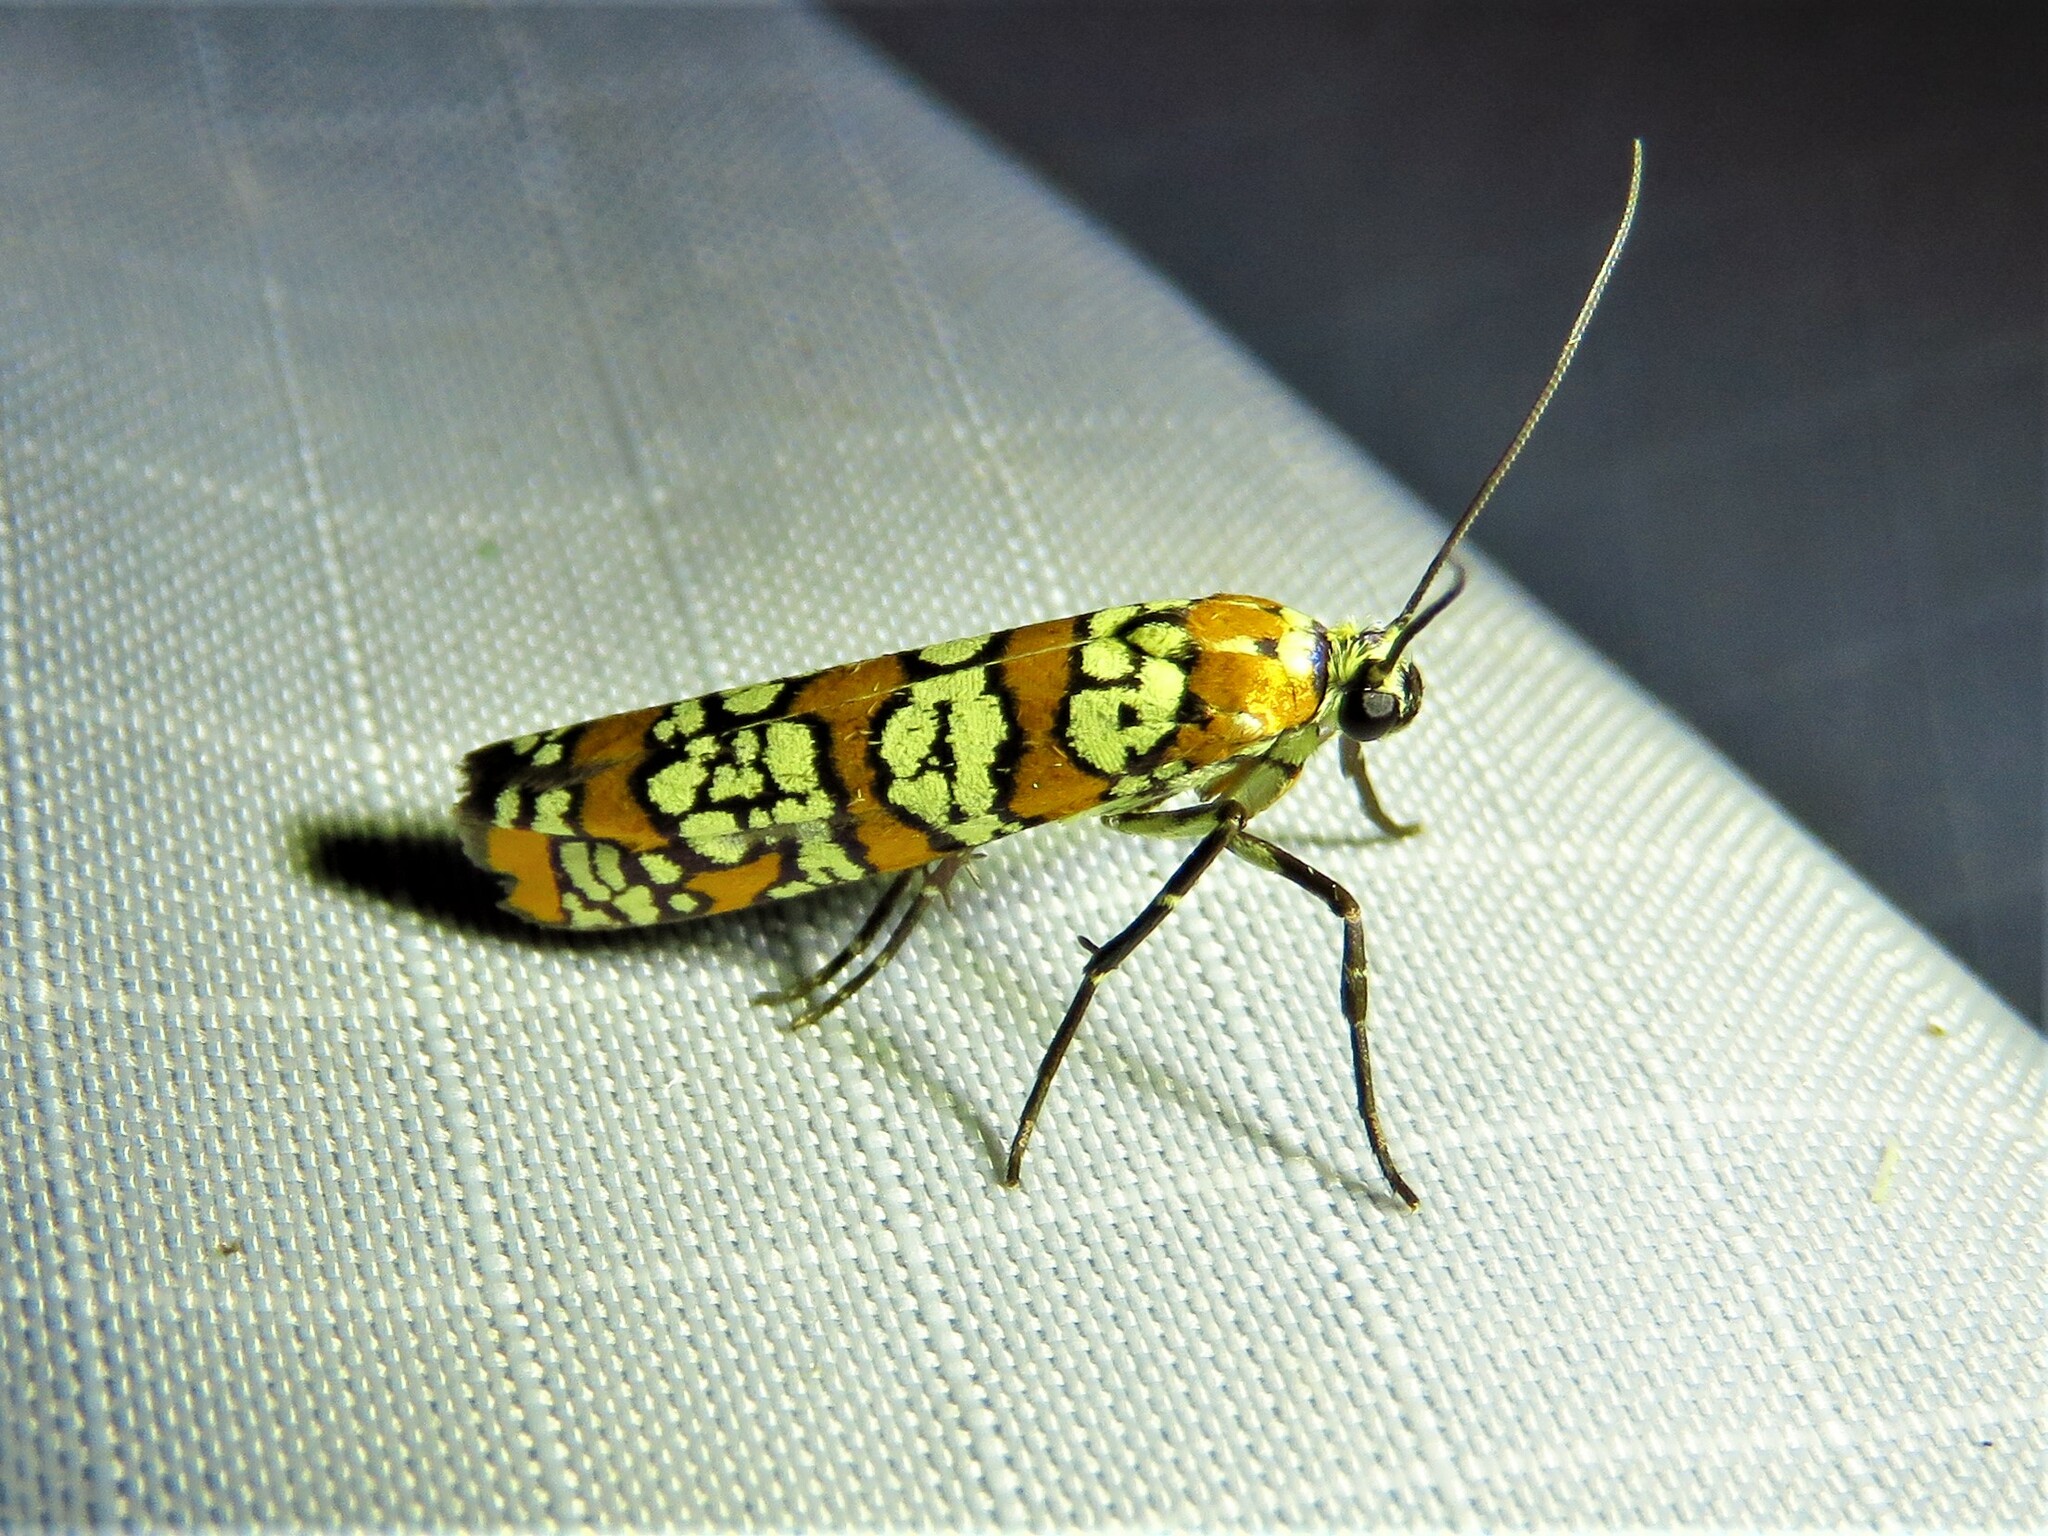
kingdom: Animalia
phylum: Arthropoda
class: Insecta
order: Lepidoptera
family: Attevidae
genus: Atteva
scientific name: Atteva punctella
